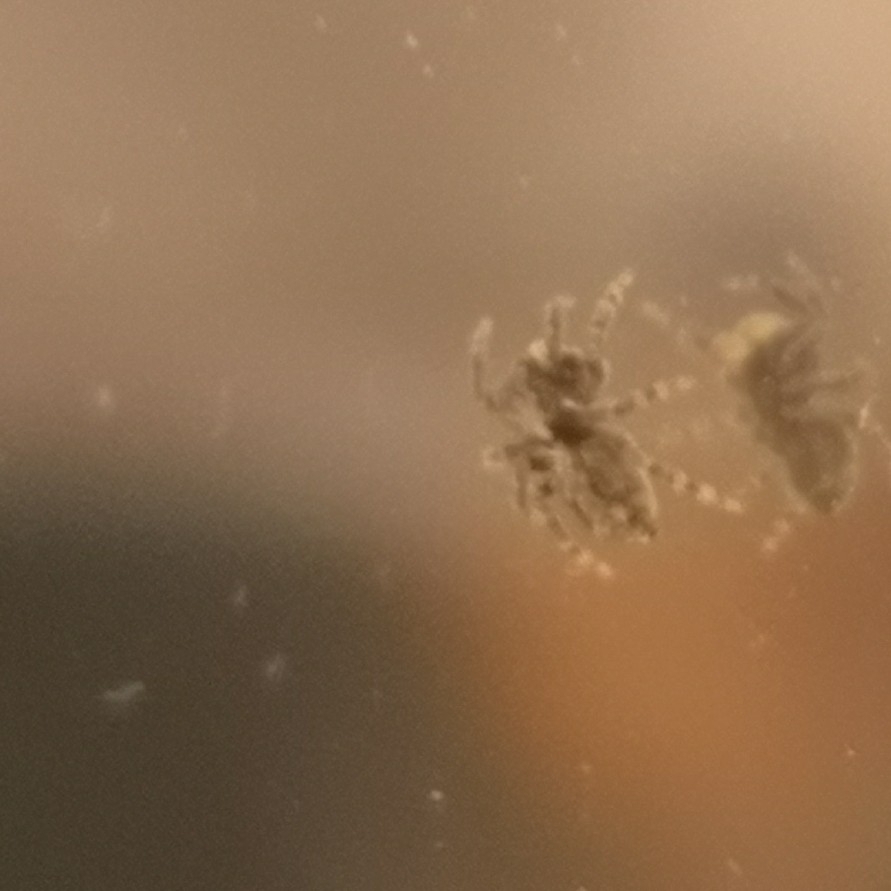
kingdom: Animalia
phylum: Arthropoda
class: Arachnida
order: Araneae
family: Salticidae
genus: Pseudeuophrys
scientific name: Pseudeuophrys lanigera
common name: Jumping spider
